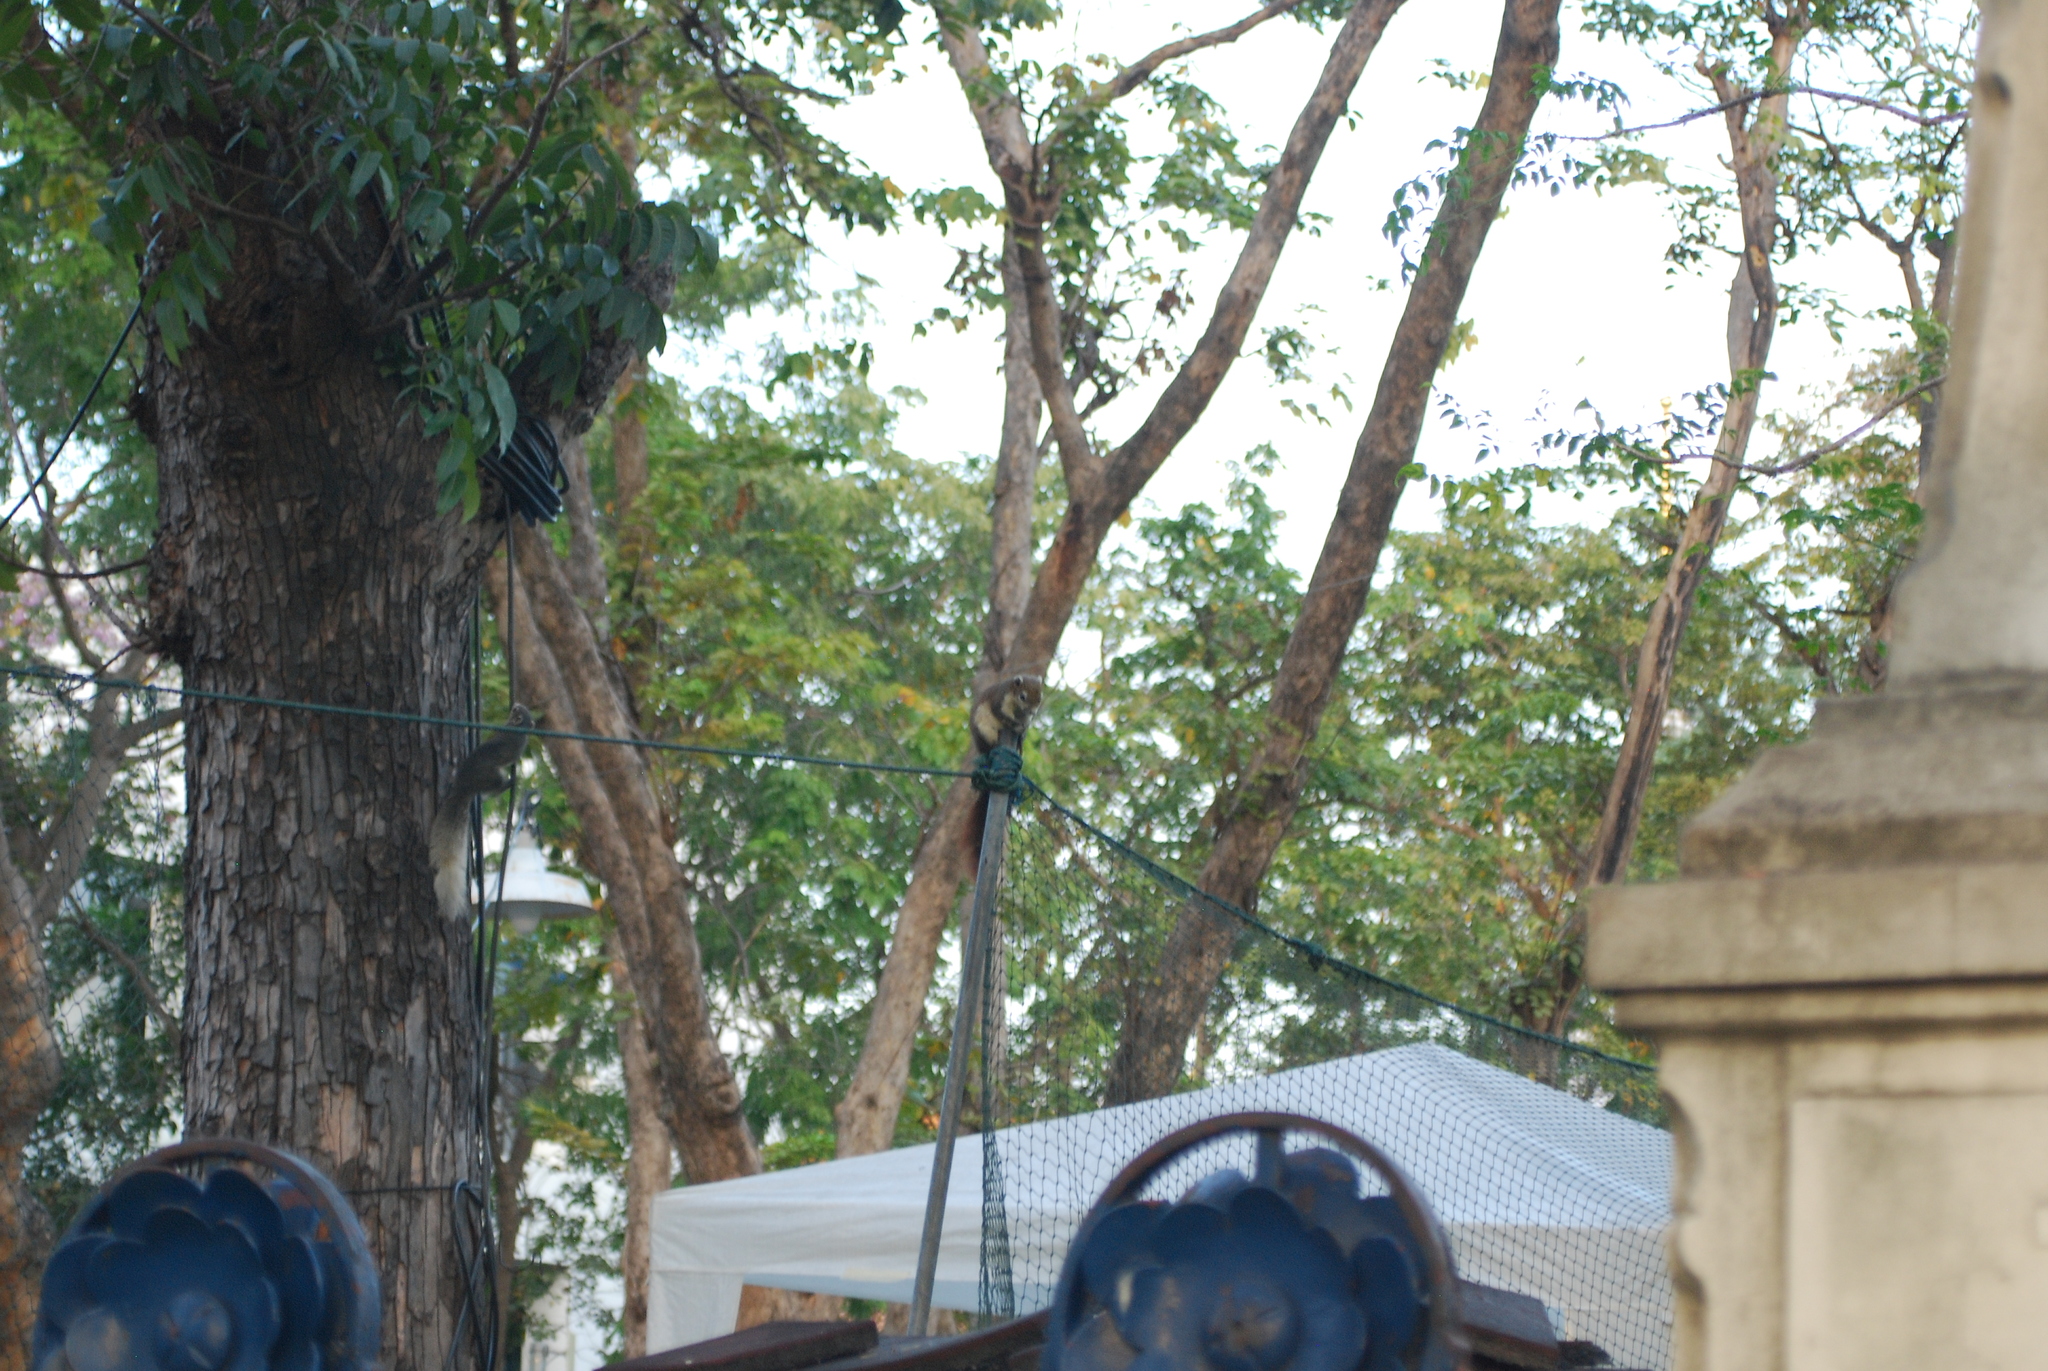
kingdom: Animalia
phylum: Chordata
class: Mammalia
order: Rodentia
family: Sciuridae
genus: Callosciurus
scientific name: Callosciurus finlaysonii
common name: Finlayson's squirrel
